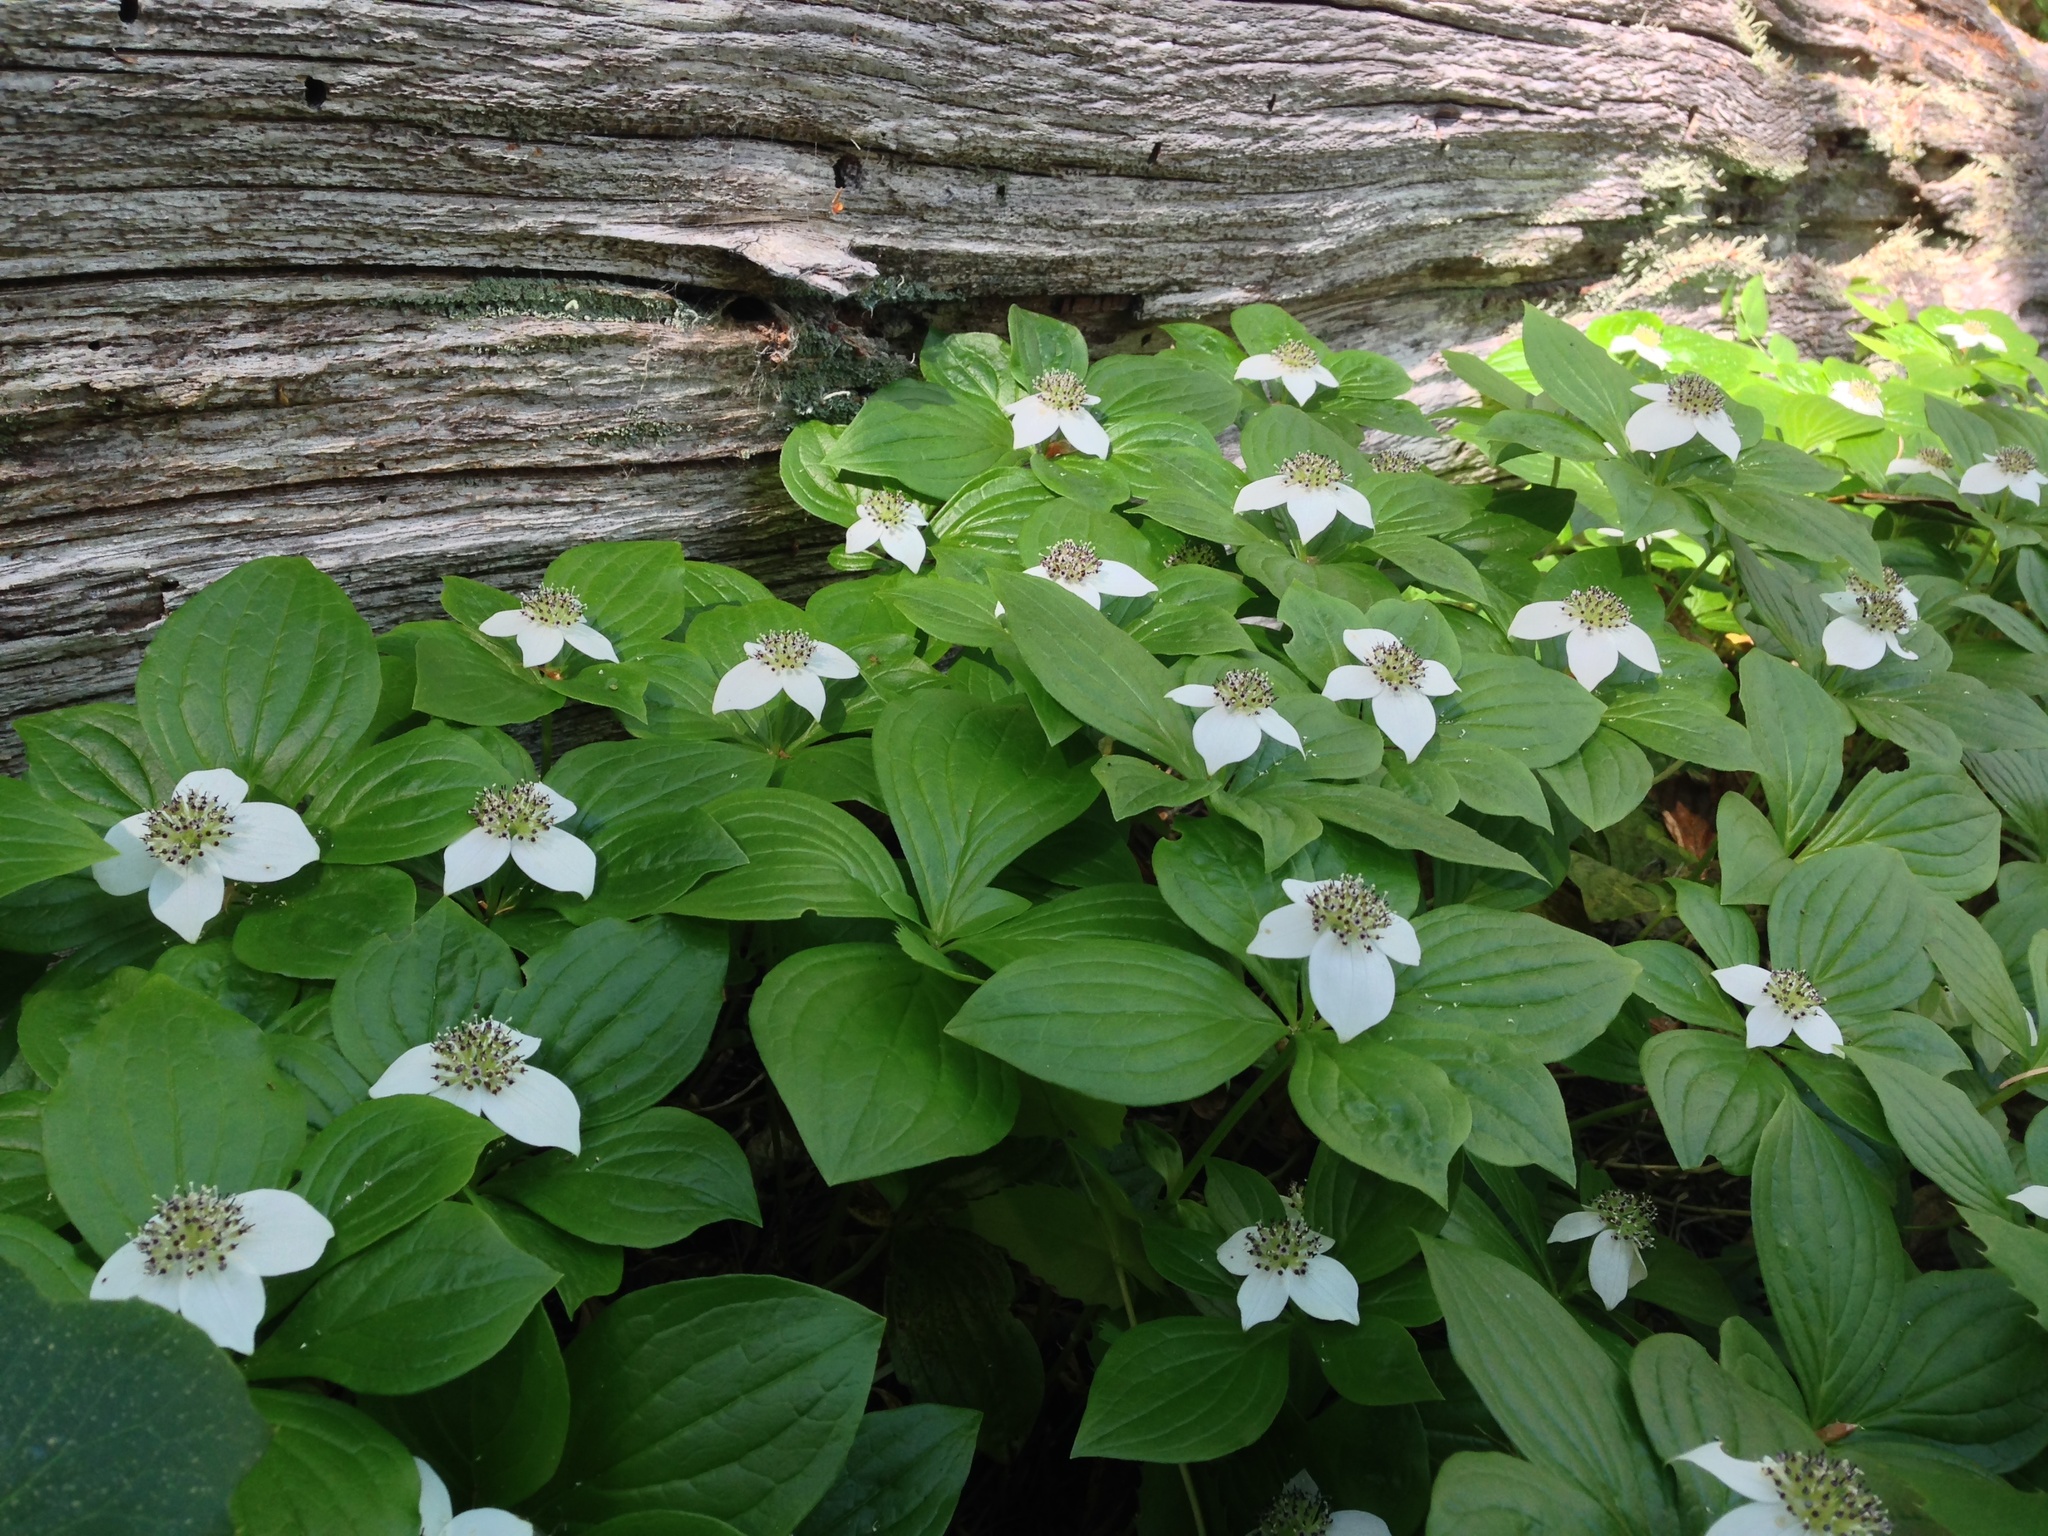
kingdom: Plantae
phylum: Tracheophyta
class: Magnoliopsida
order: Cornales
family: Cornaceae
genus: Cornus
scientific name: Cornus unalaschkensis
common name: Alaska bunchberry
